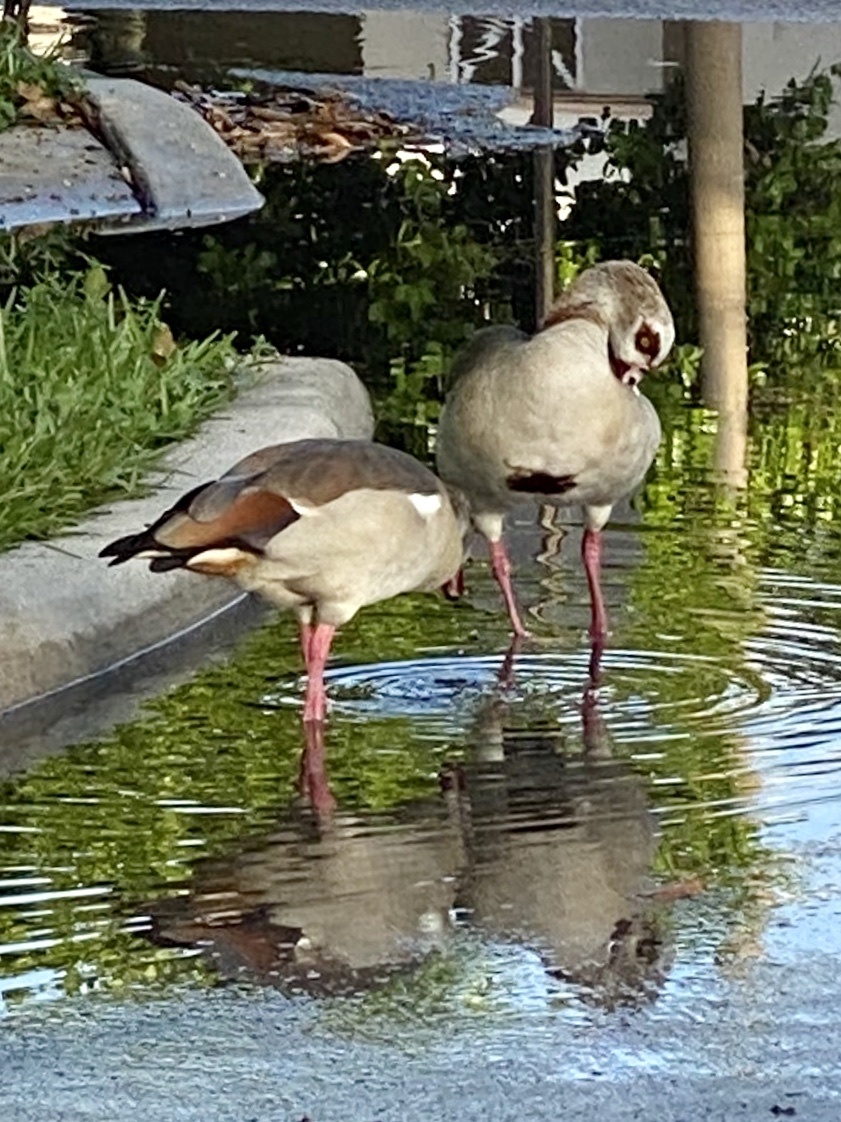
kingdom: Animalia
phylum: Chordata
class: Aves
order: Anseriformes
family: Anatidae
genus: Alopochen
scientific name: Alopochen aegyptiaca
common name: Egyptian goose
